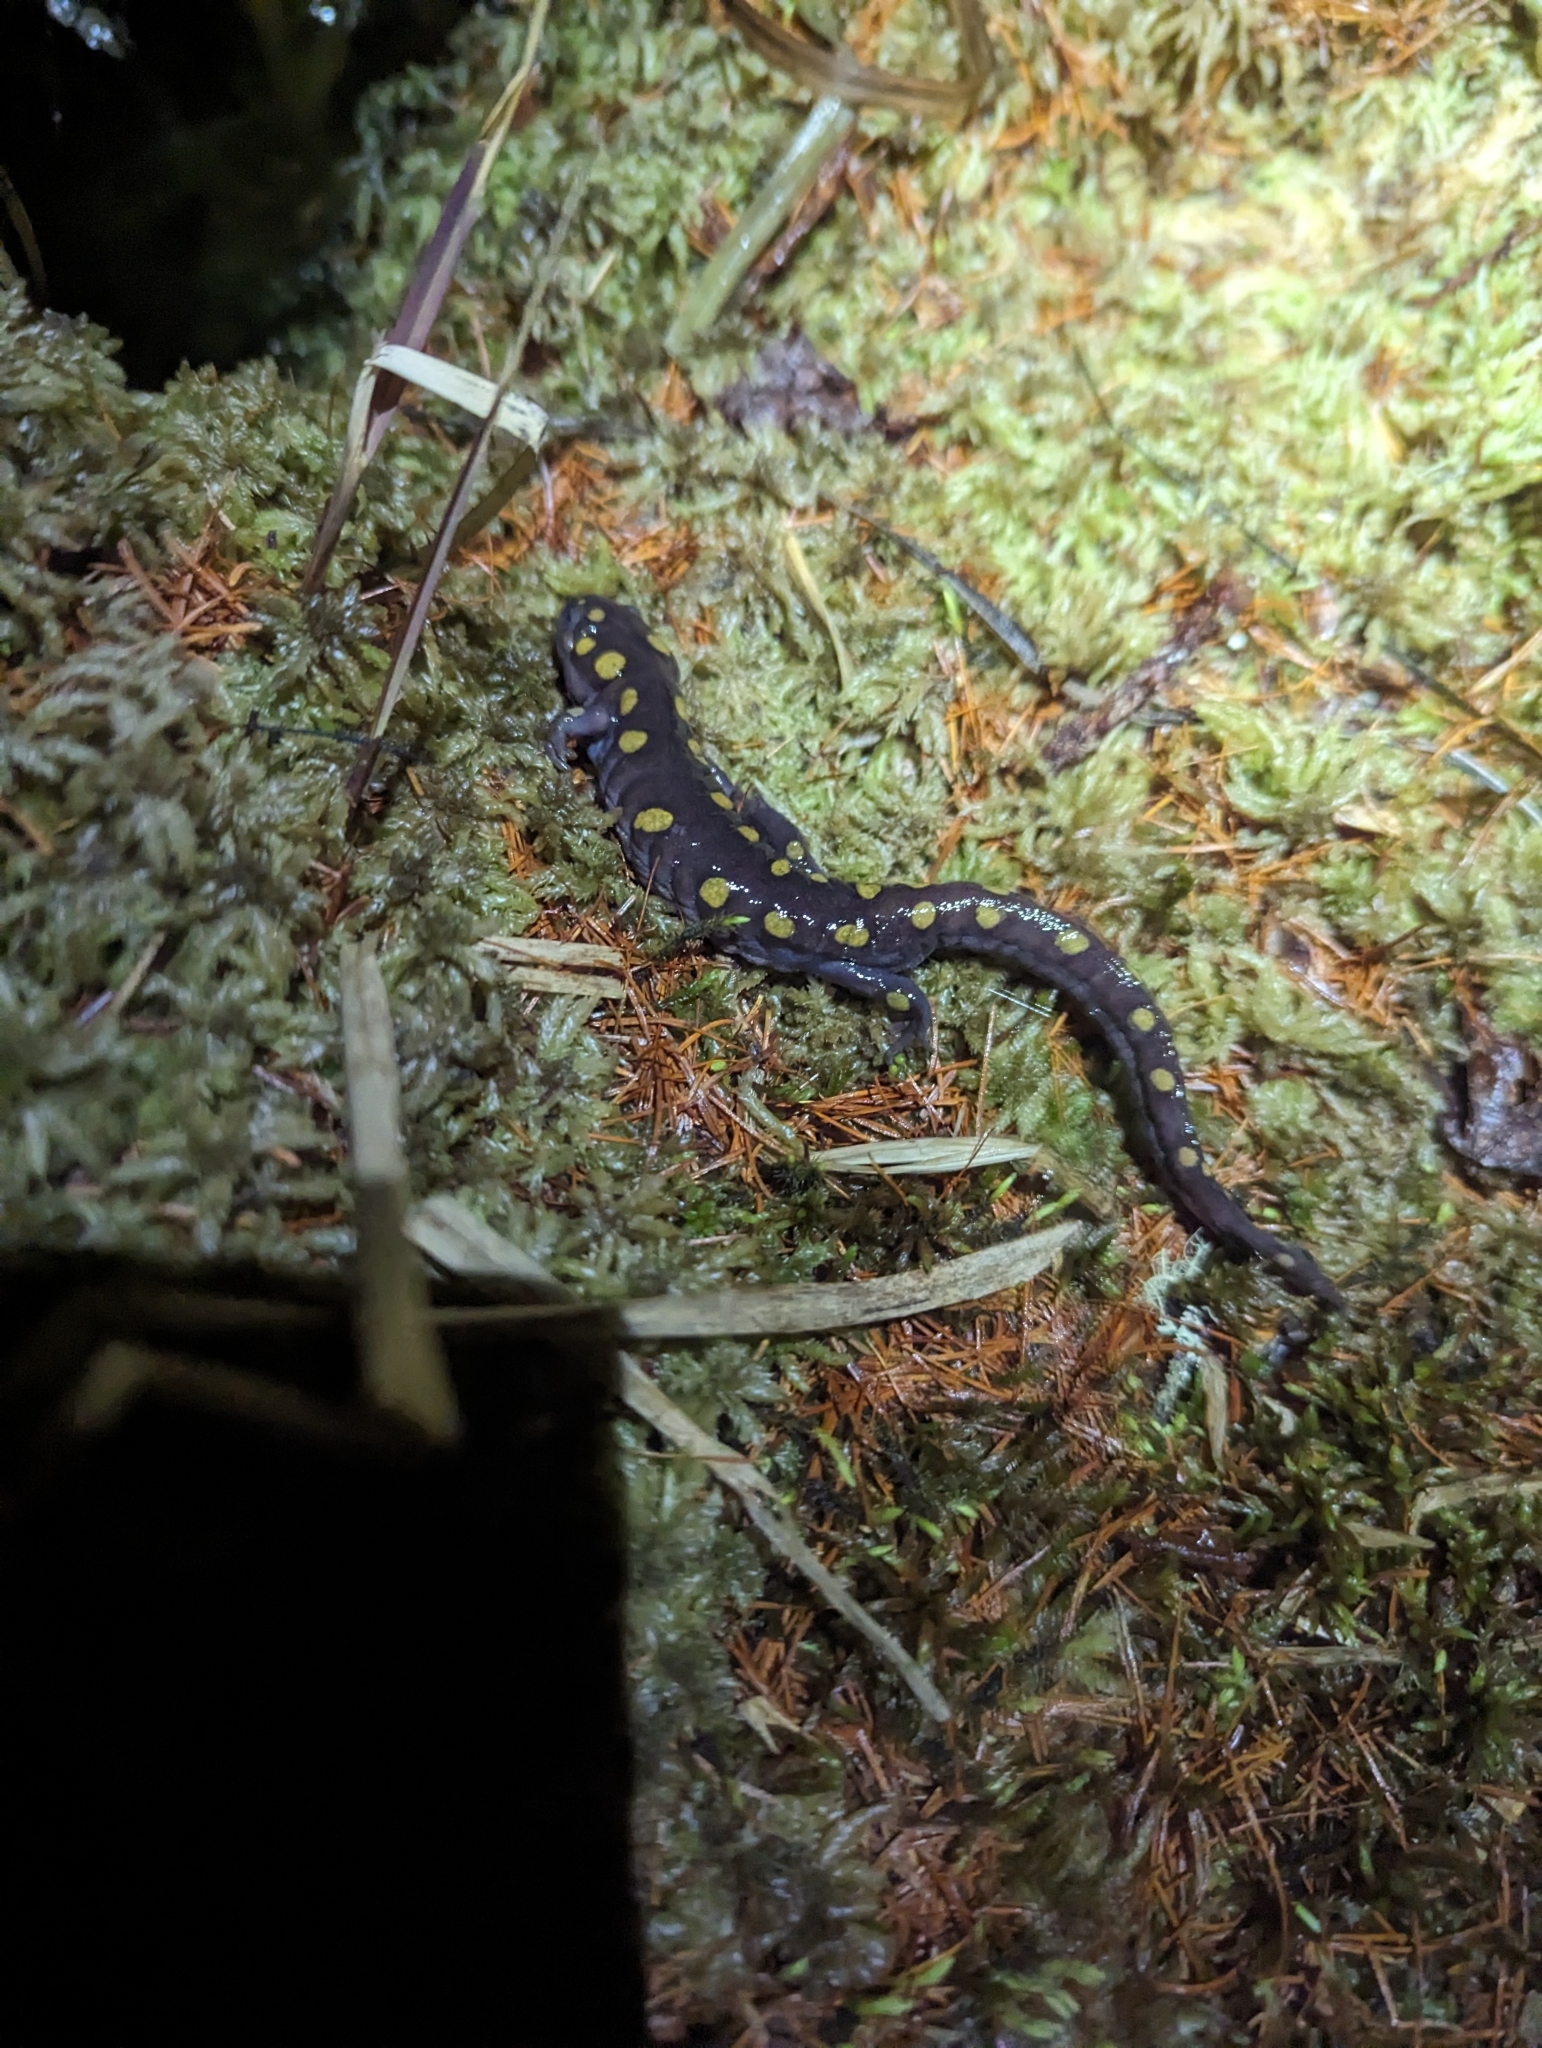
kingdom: Animalia
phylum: Chordata
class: Amphibia
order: Caudata
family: Ambystomatidae
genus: Ambystoma
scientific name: Ambystoma maculatum
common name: Spotted salamander
